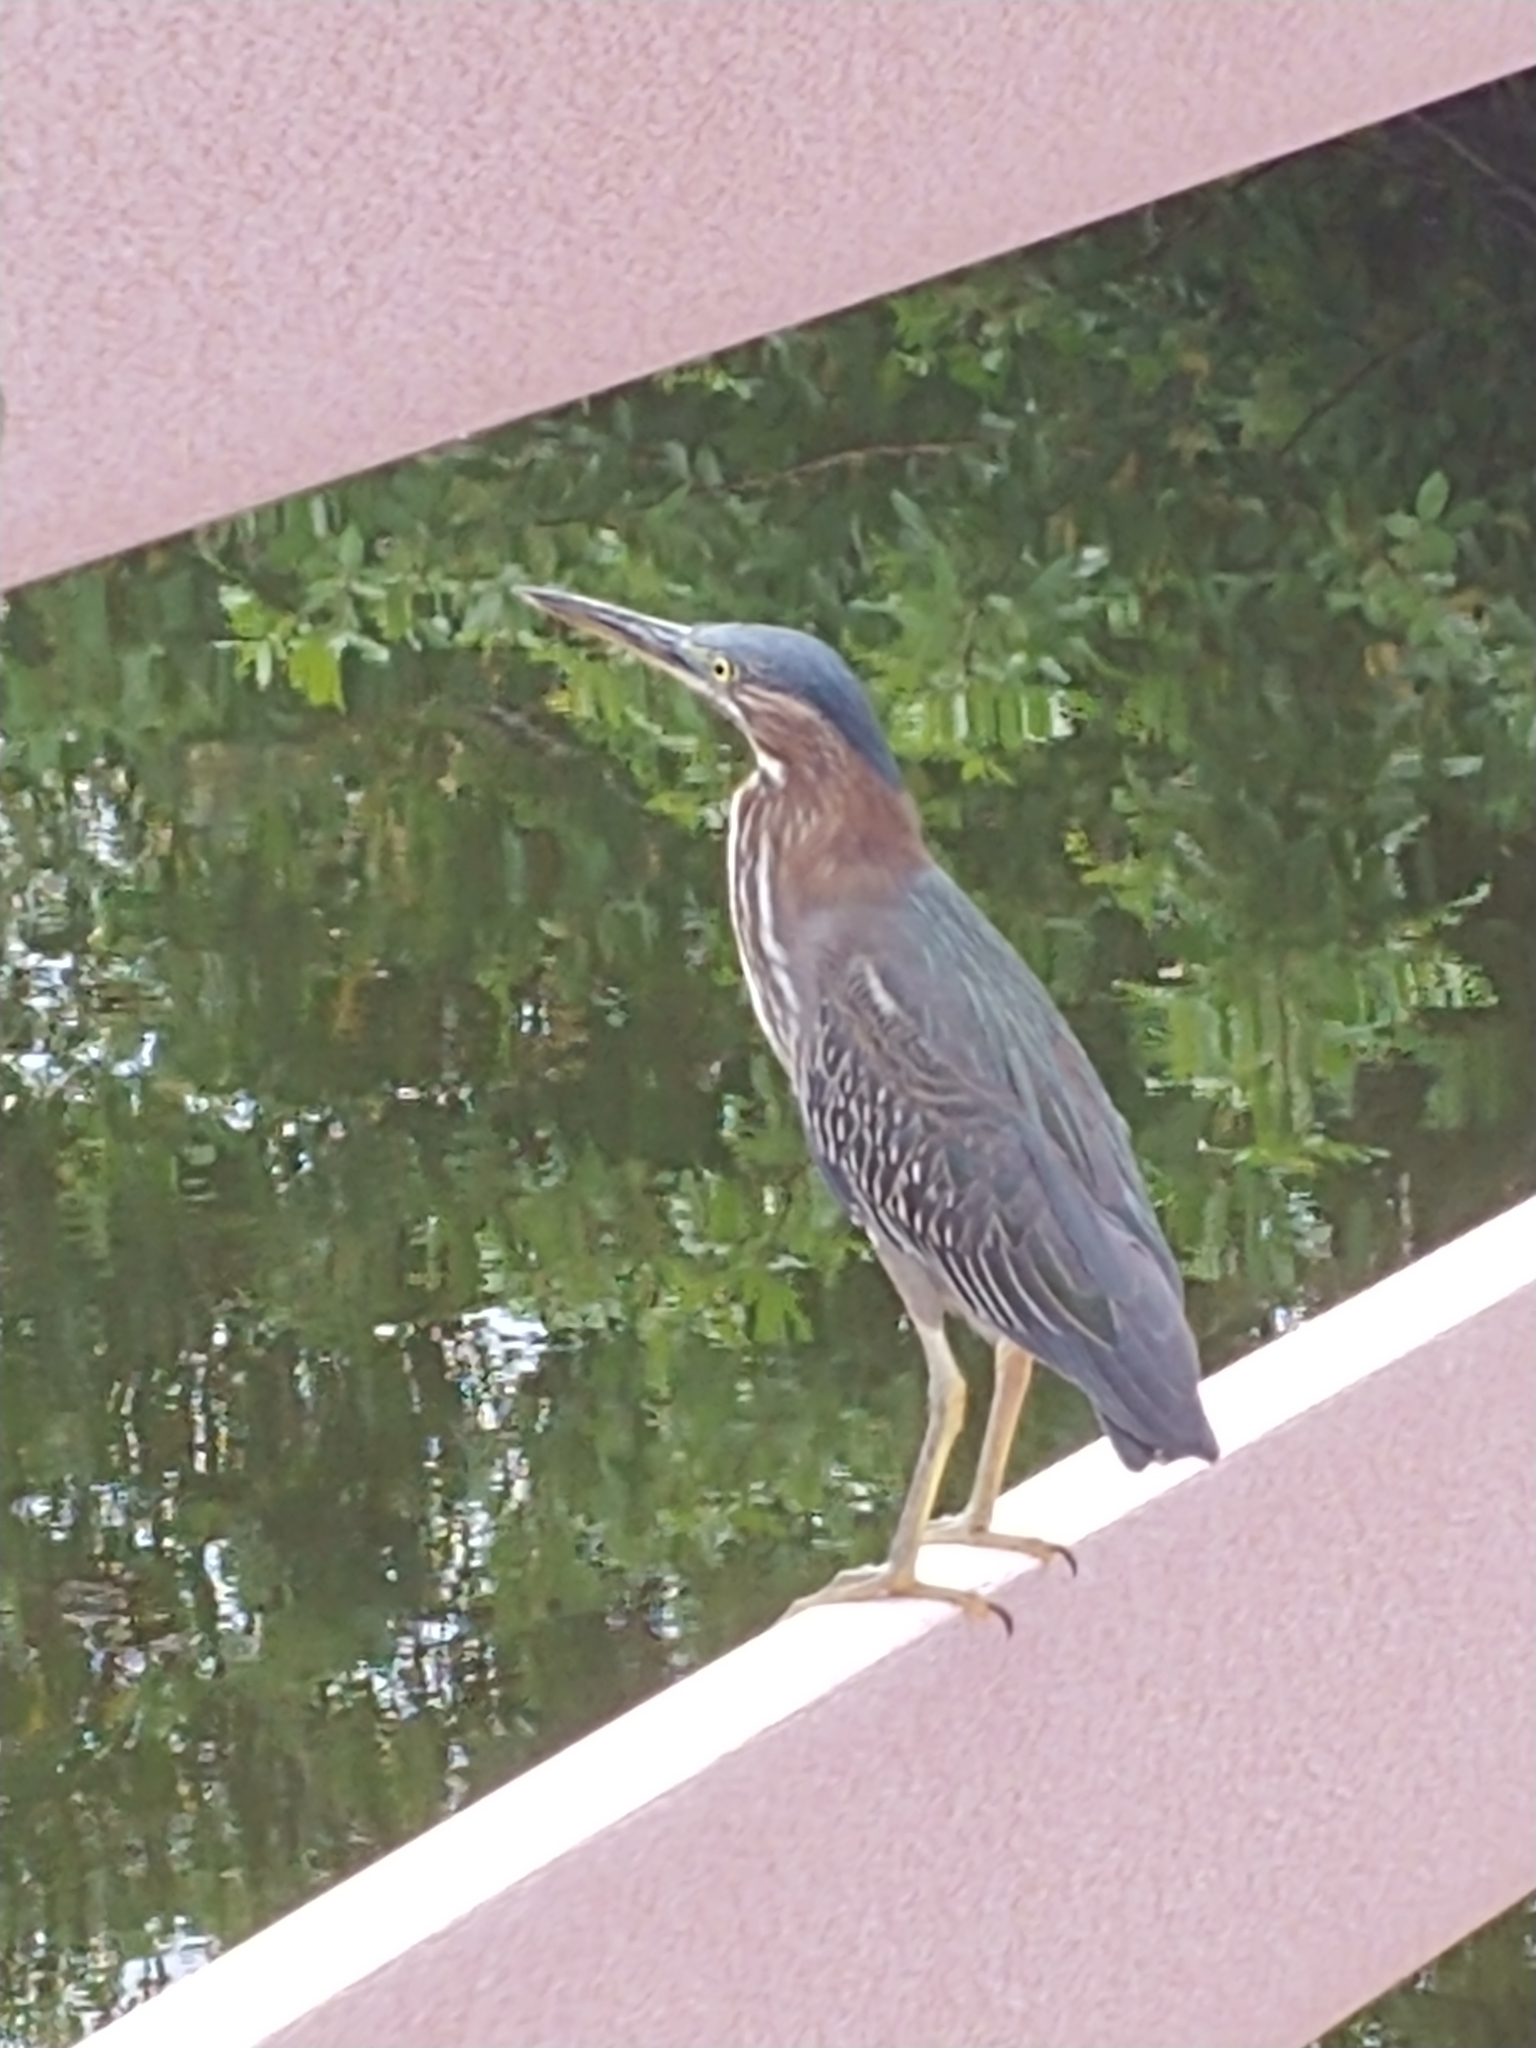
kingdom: Animalia
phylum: Chordata
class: Aves
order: Pelecaniformes
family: Ardeidae
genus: Butorides
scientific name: Butorides virescens
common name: Green heron
